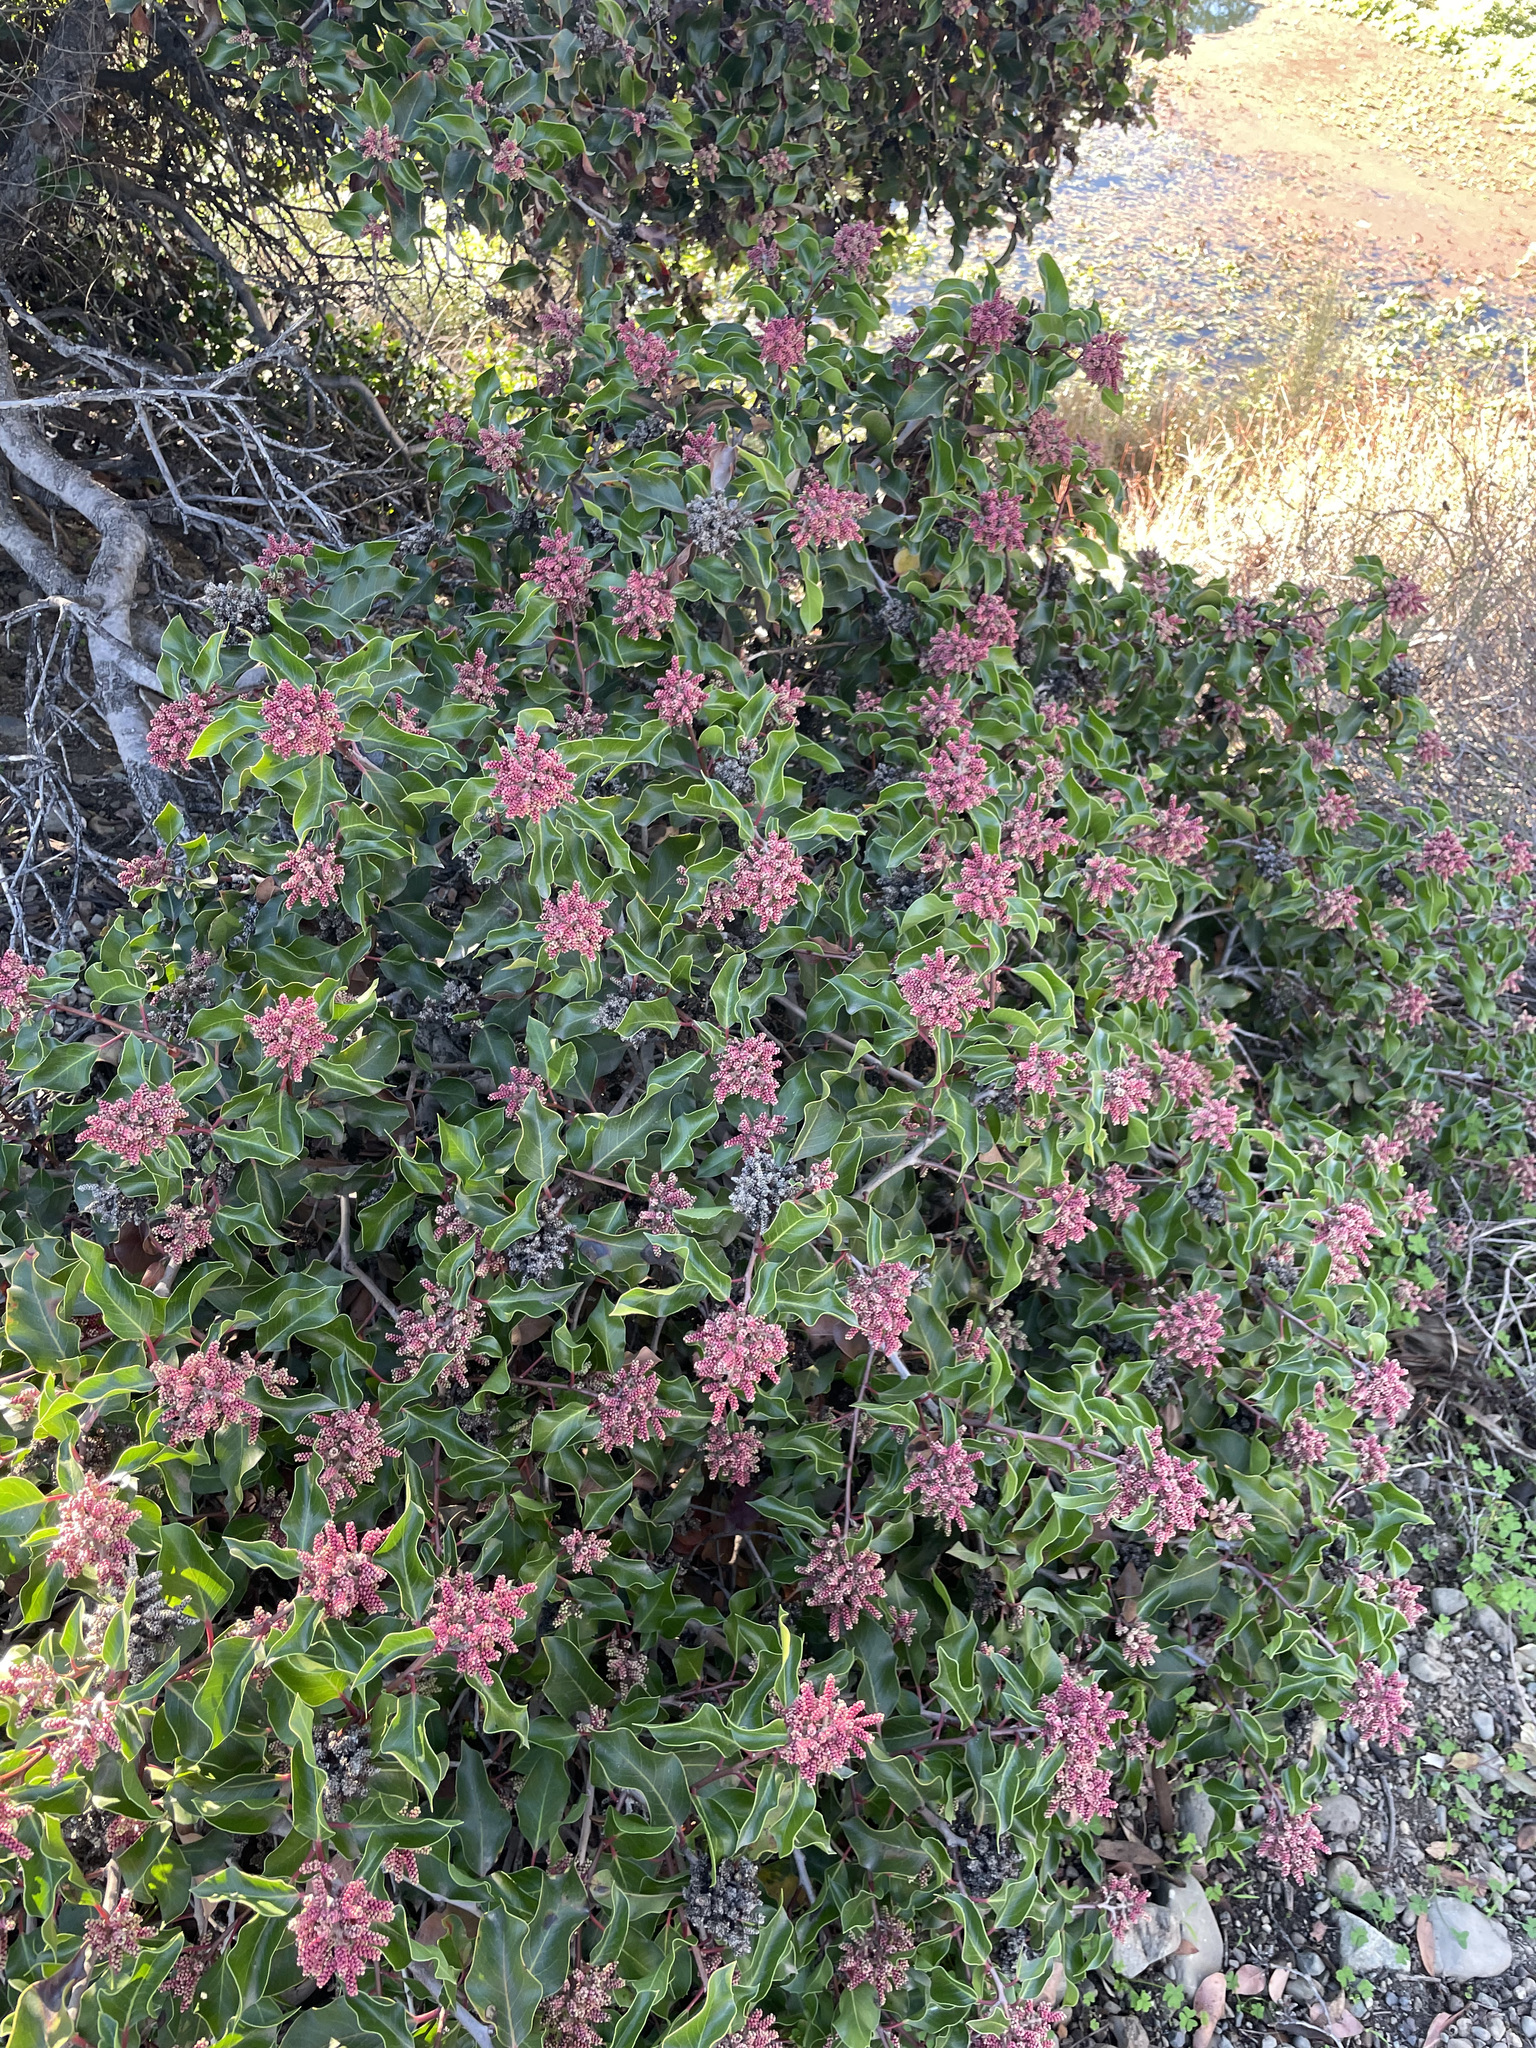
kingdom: Plantae
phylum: Tracheophyta
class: Magnoliopsida
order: Sapindales
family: Anacardiaceae
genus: Rhus
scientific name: Rhus ovata
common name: Sugar sumac
